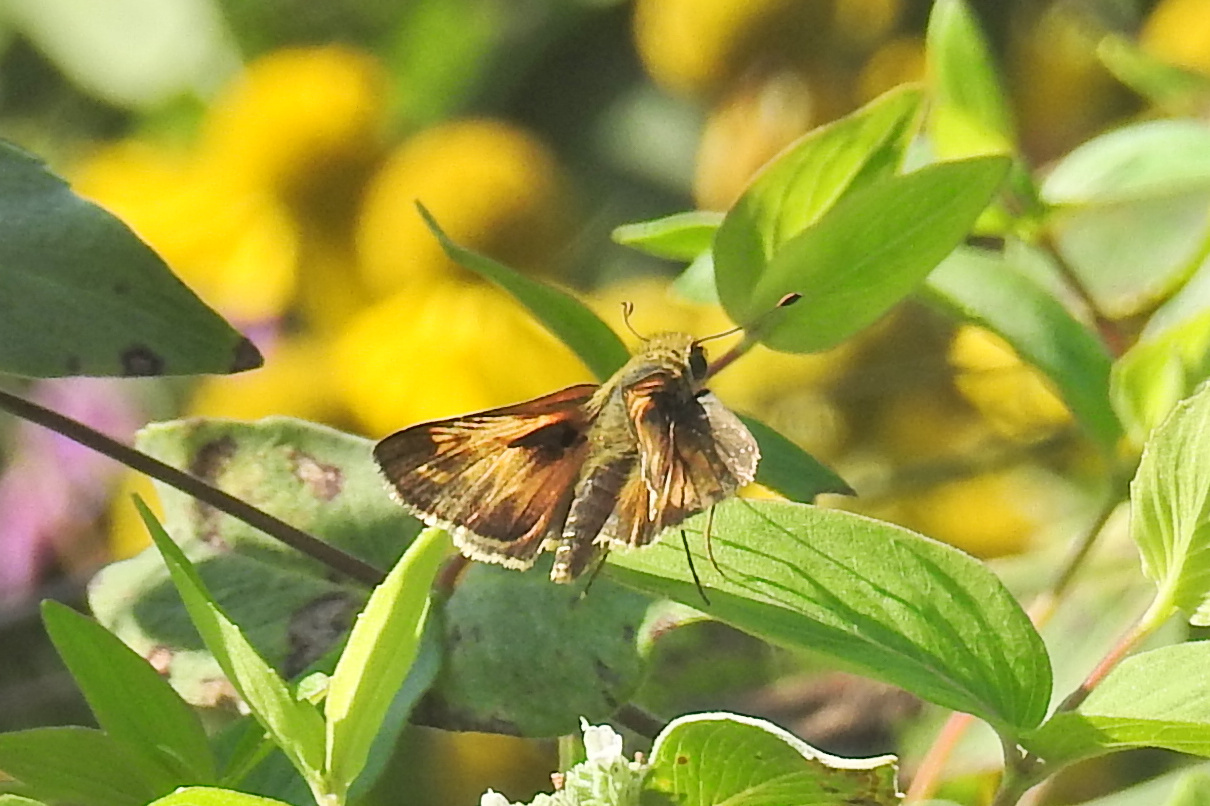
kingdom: Animalia
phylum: Arthropoda
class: Insecta
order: Lepidoptera
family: Hesperiidae
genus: Atalopedes
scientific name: Atalopedes
